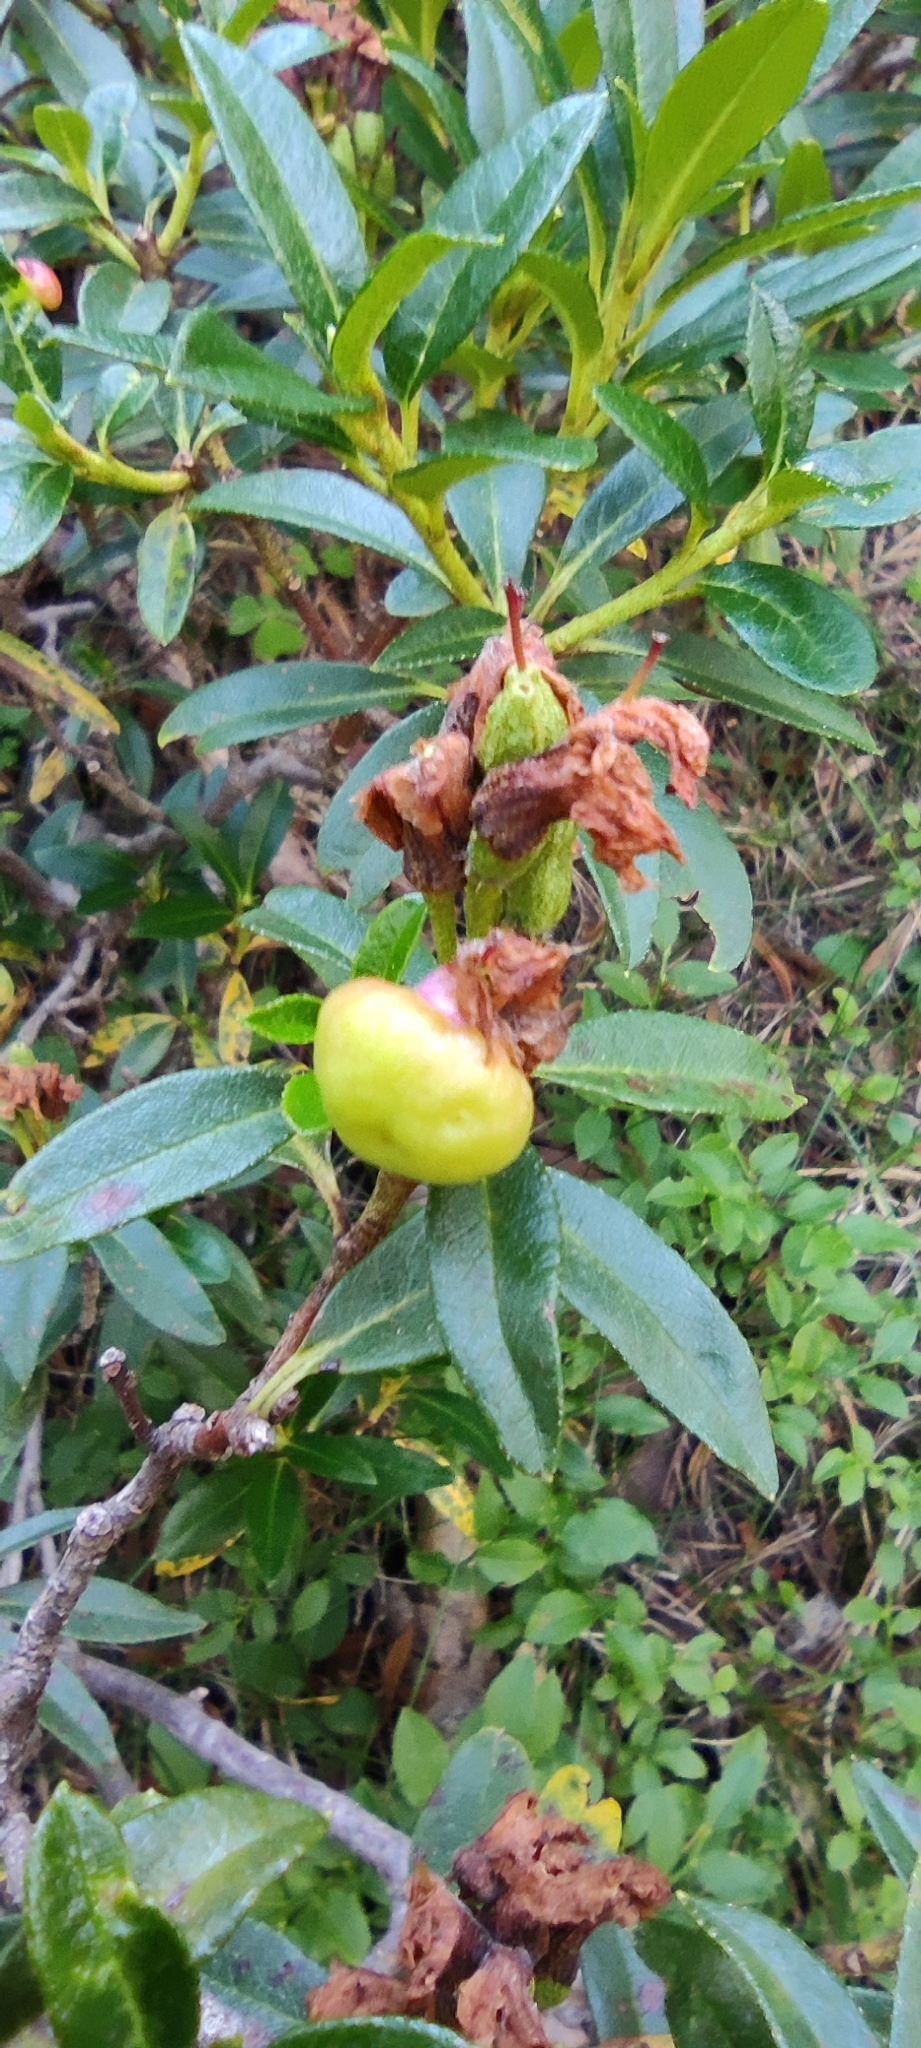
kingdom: Plantae
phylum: Tracheophyta
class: Magnoliopsida
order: Ericales
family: Ericaceae
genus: Rhododendron
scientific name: Rhododendron ferrugineum
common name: Alpenrose
